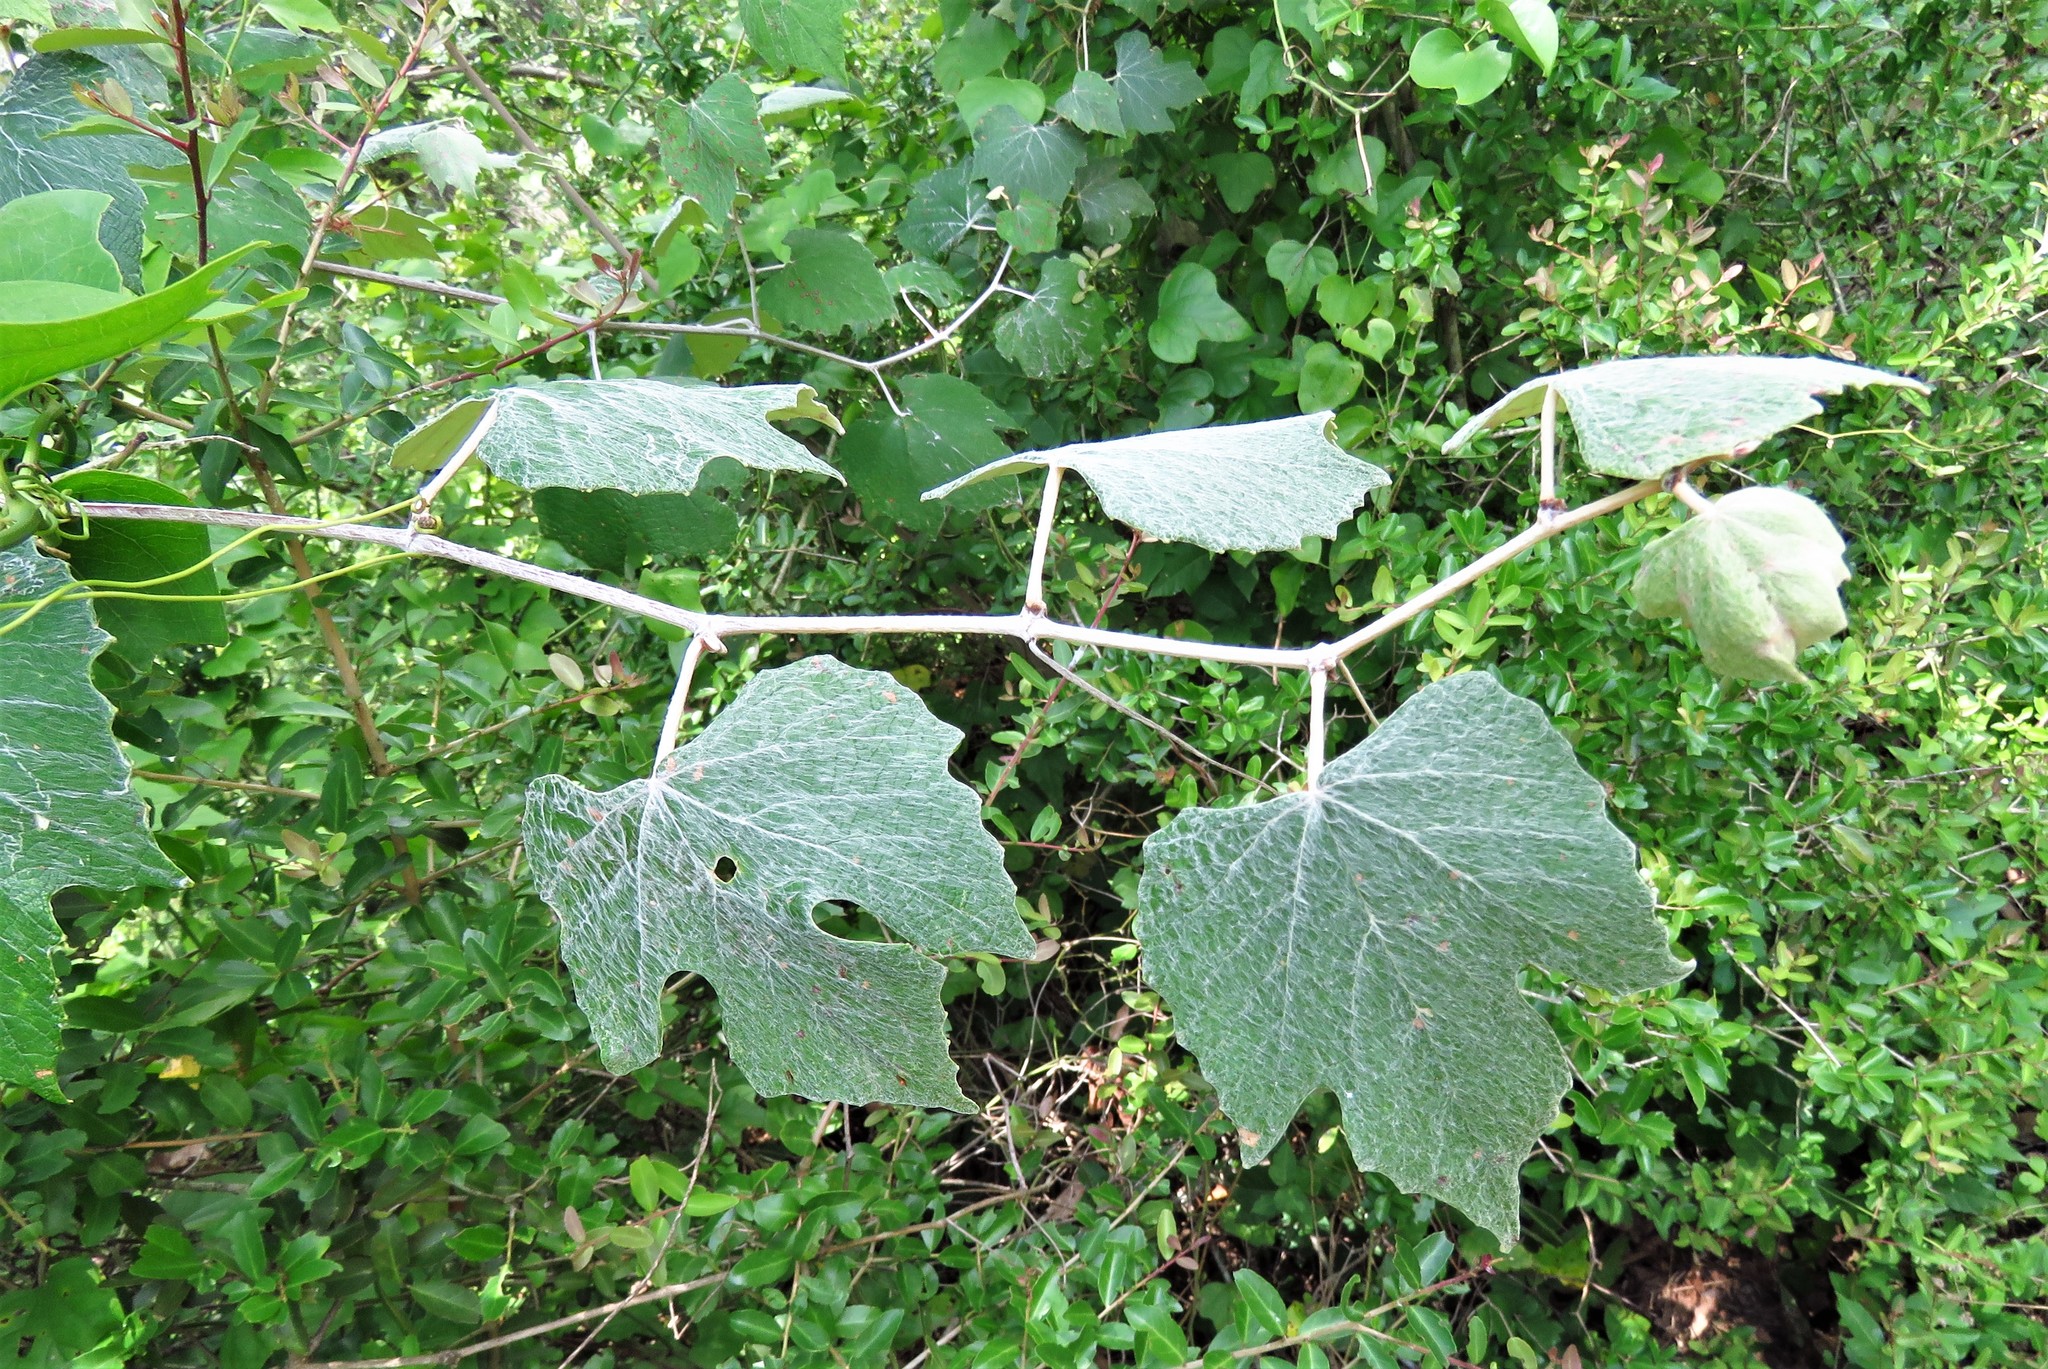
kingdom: Plantae
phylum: Tracheophyta
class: Magnoliopsida
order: Vitales
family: Vitaceae
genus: Vitis
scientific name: Vitis mustangensis
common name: Mustang grape
